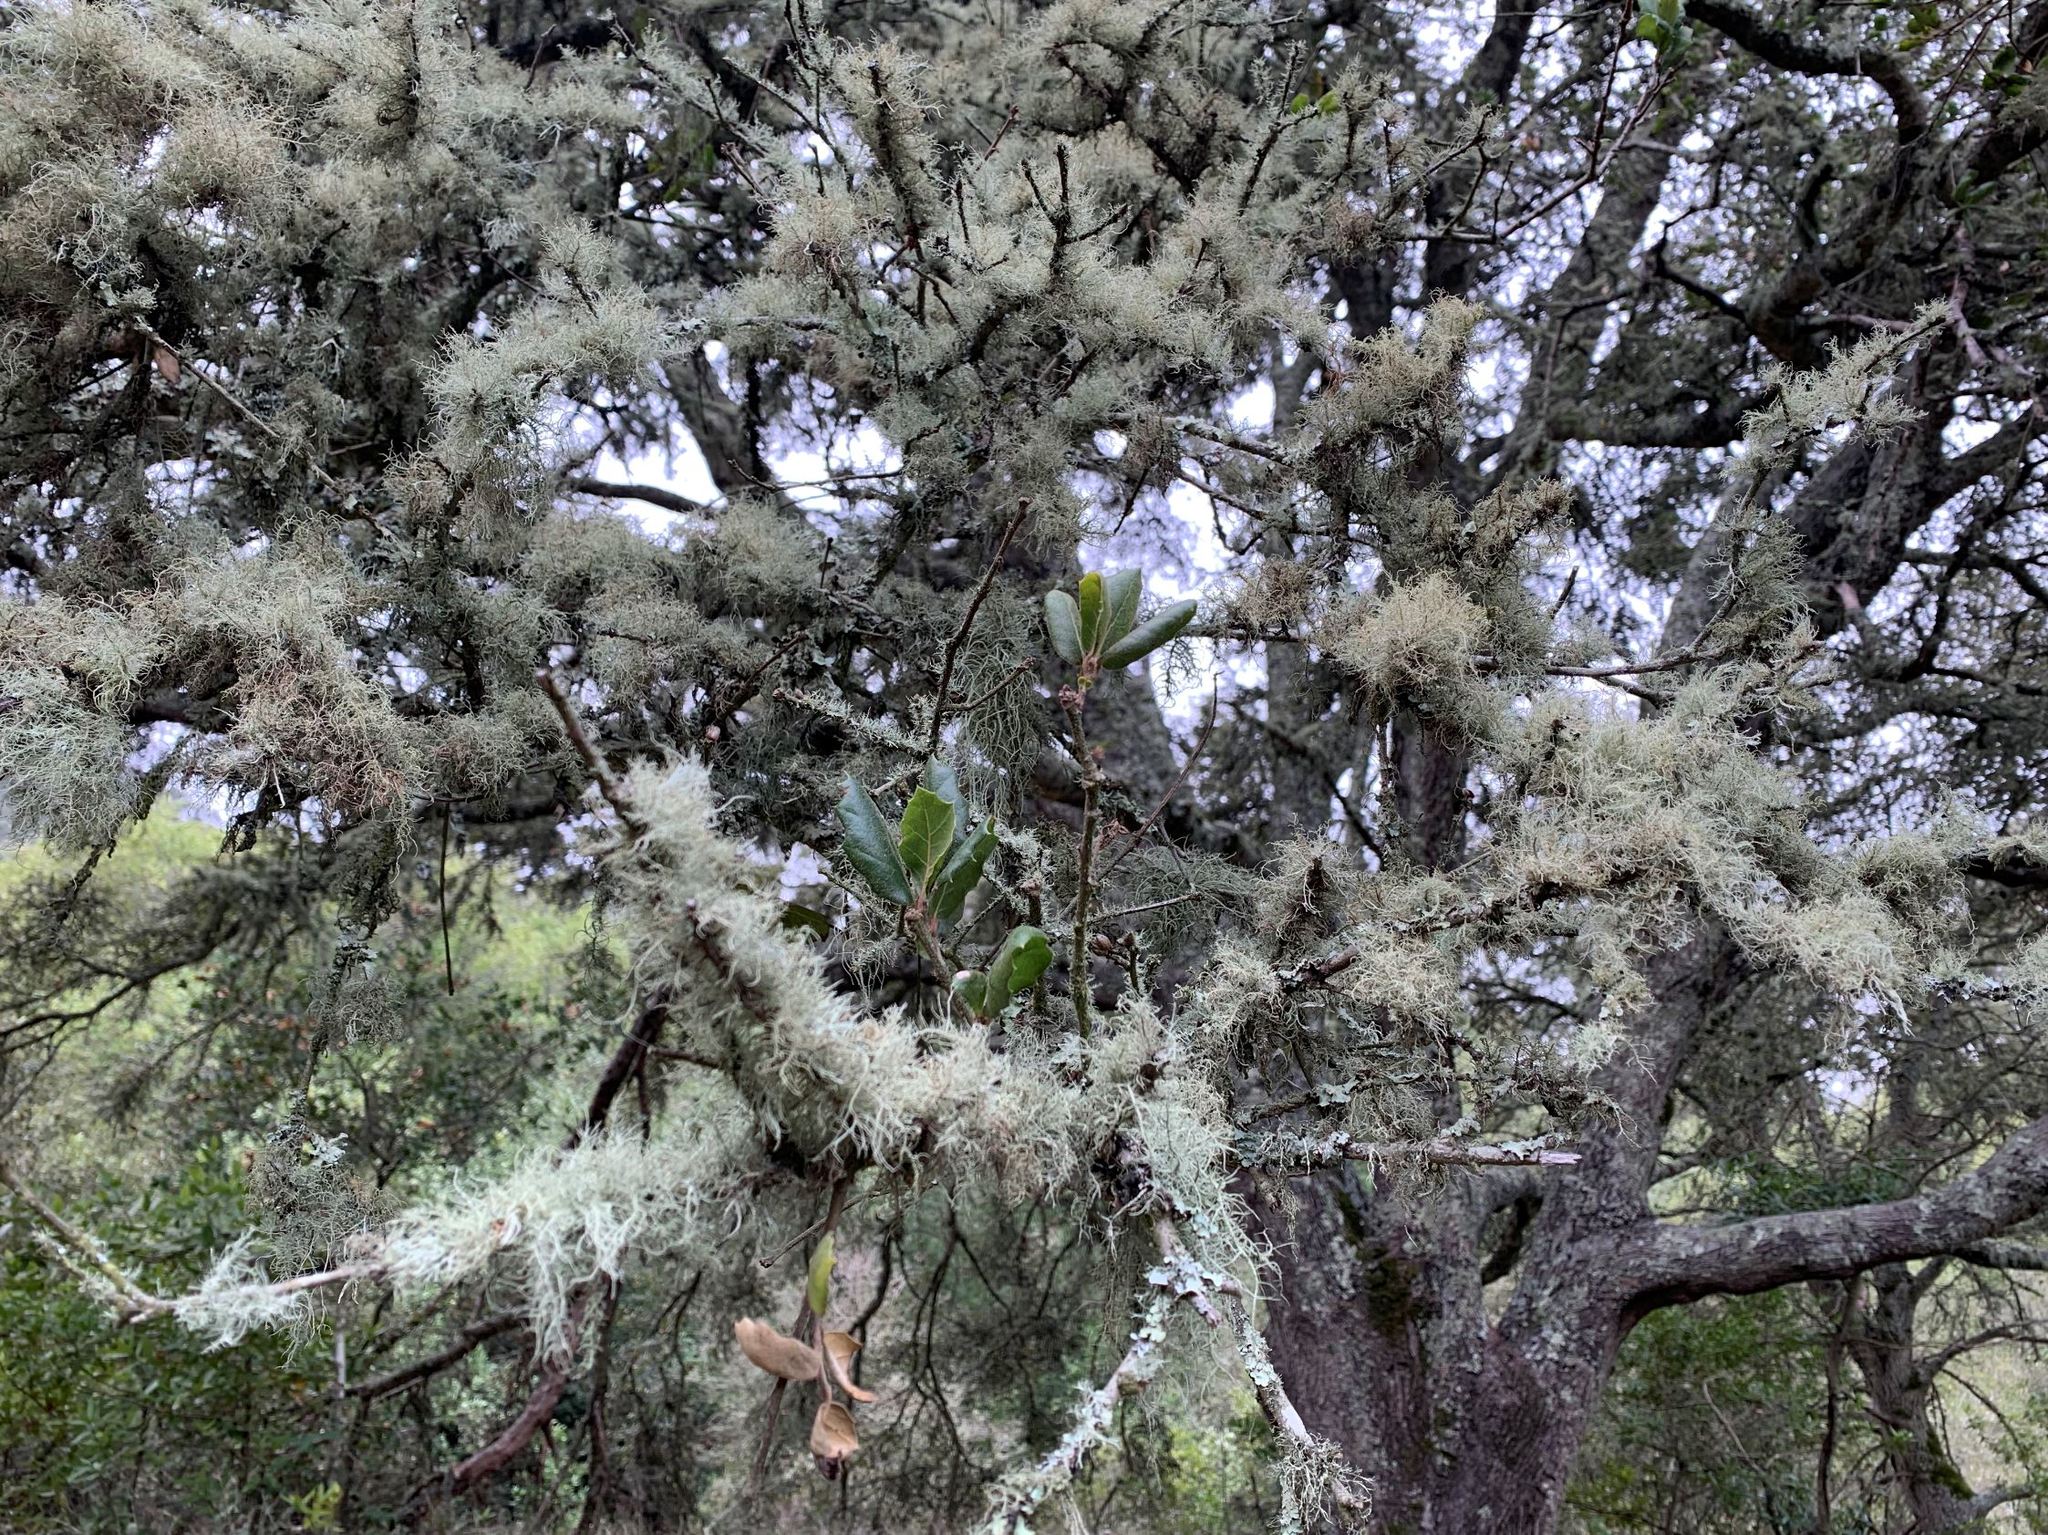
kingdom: Plantae
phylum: Tracheophyta
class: Magnoliopsida
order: Fagales
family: Fagaceae
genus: Quercus
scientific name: Quercus agrifolia
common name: California live oak
